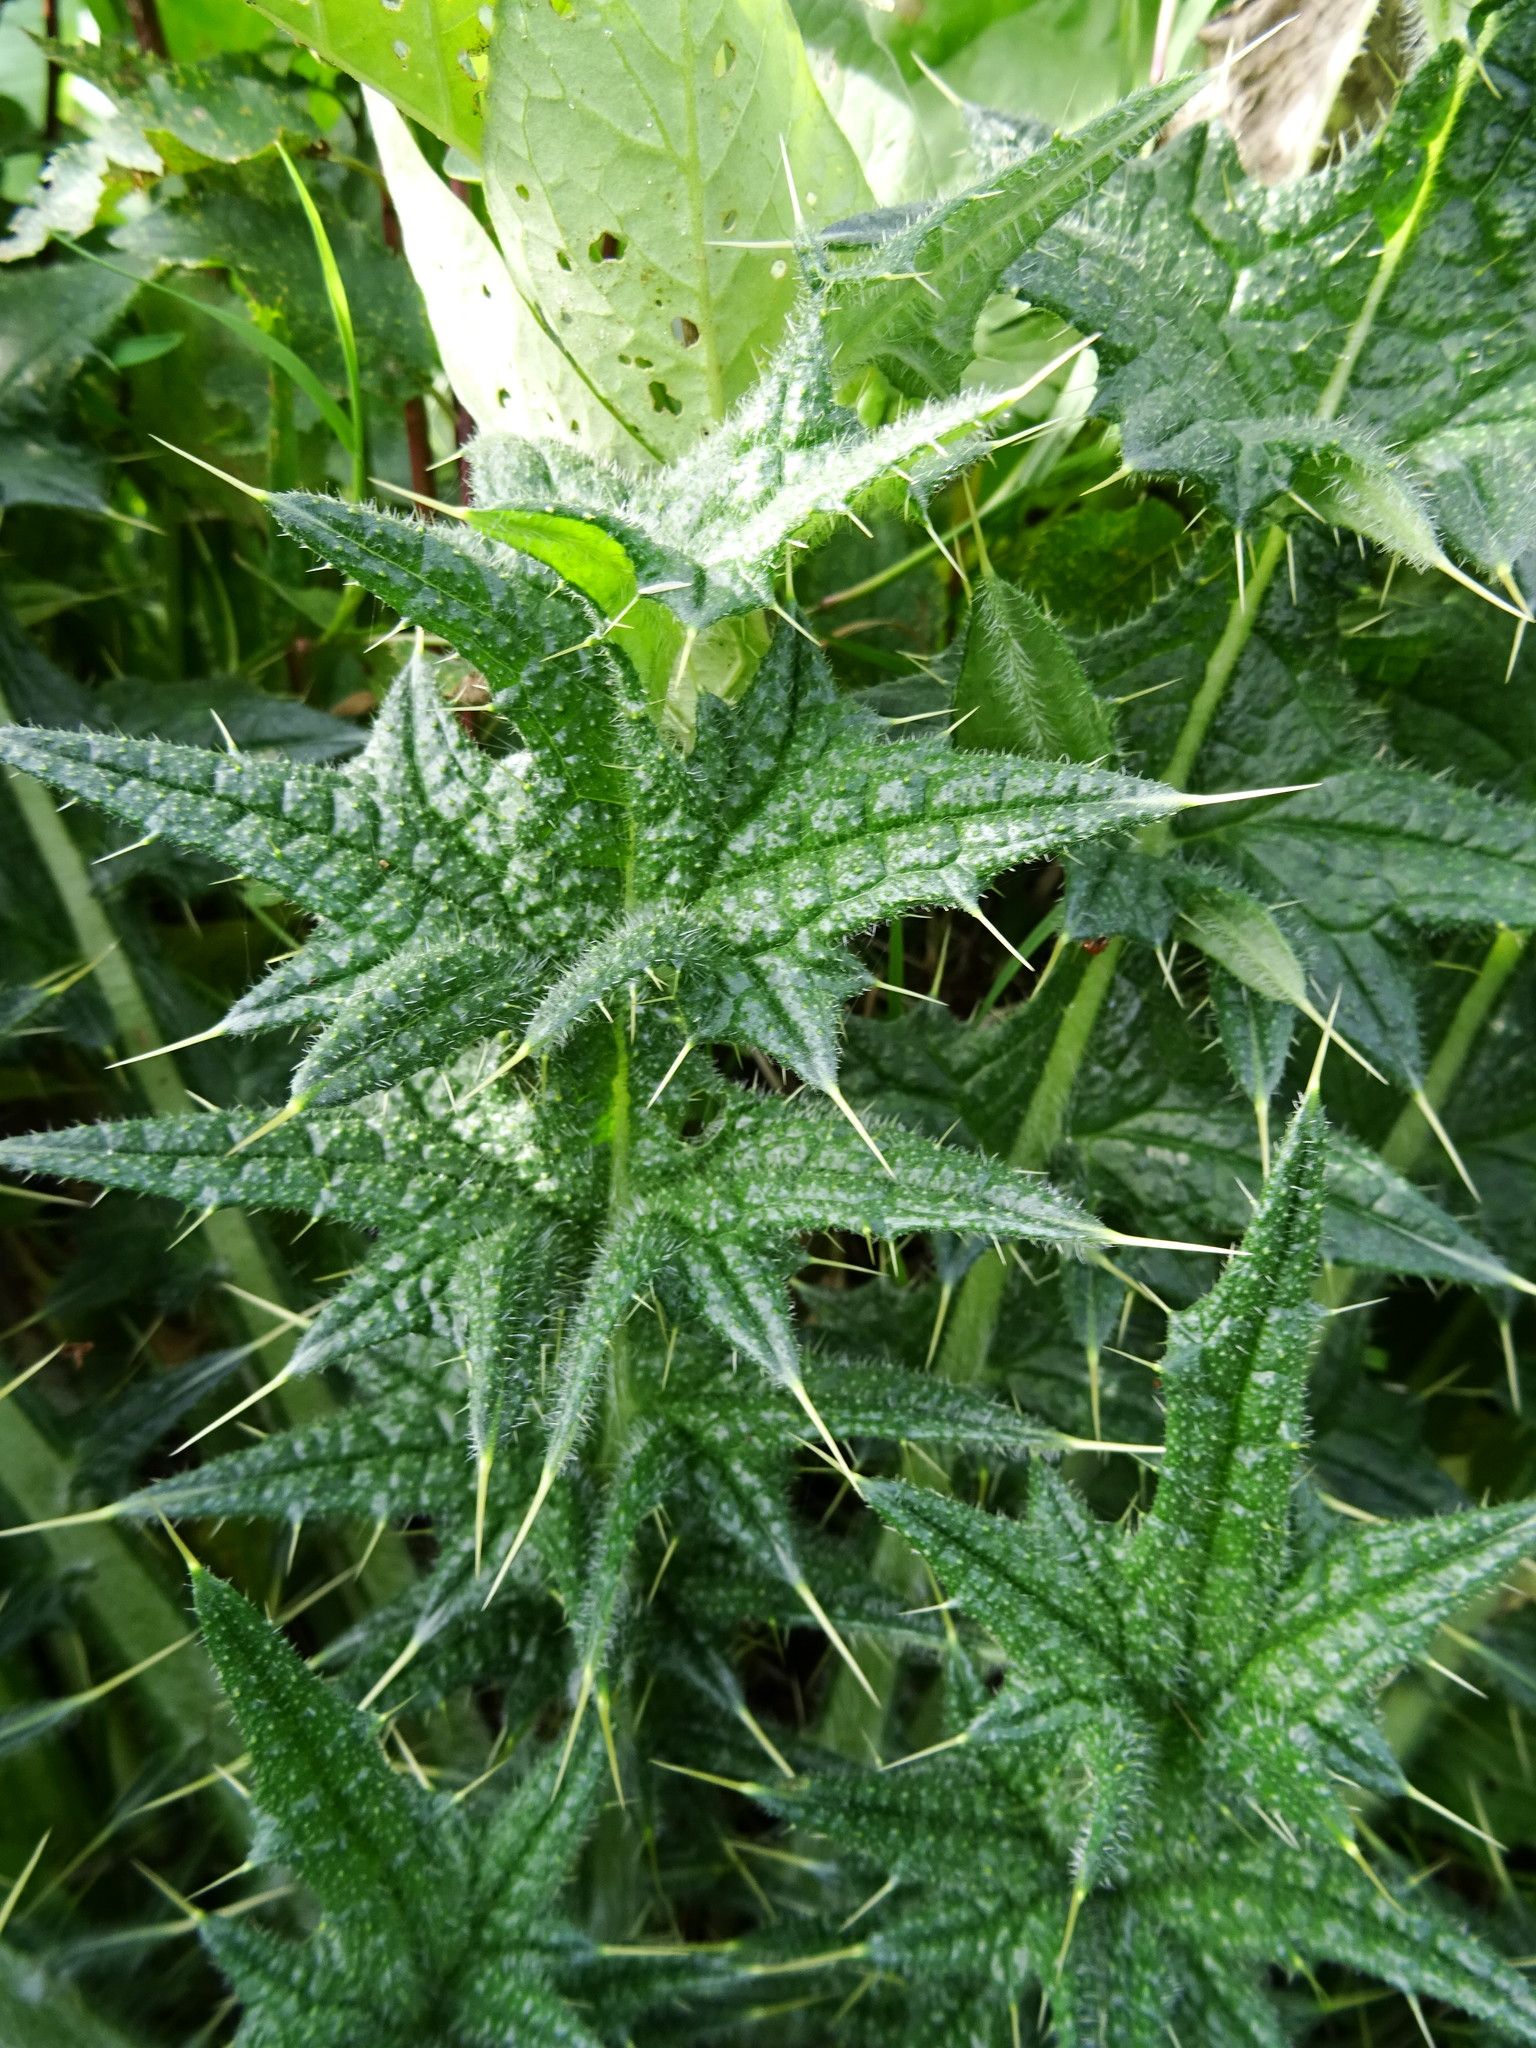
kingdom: Plantae
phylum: Tracheophyta
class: Magnoliopsida
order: Asterales
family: Asteraceae
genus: Cirsium
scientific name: Cirsium vulgare
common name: Bull thistle
